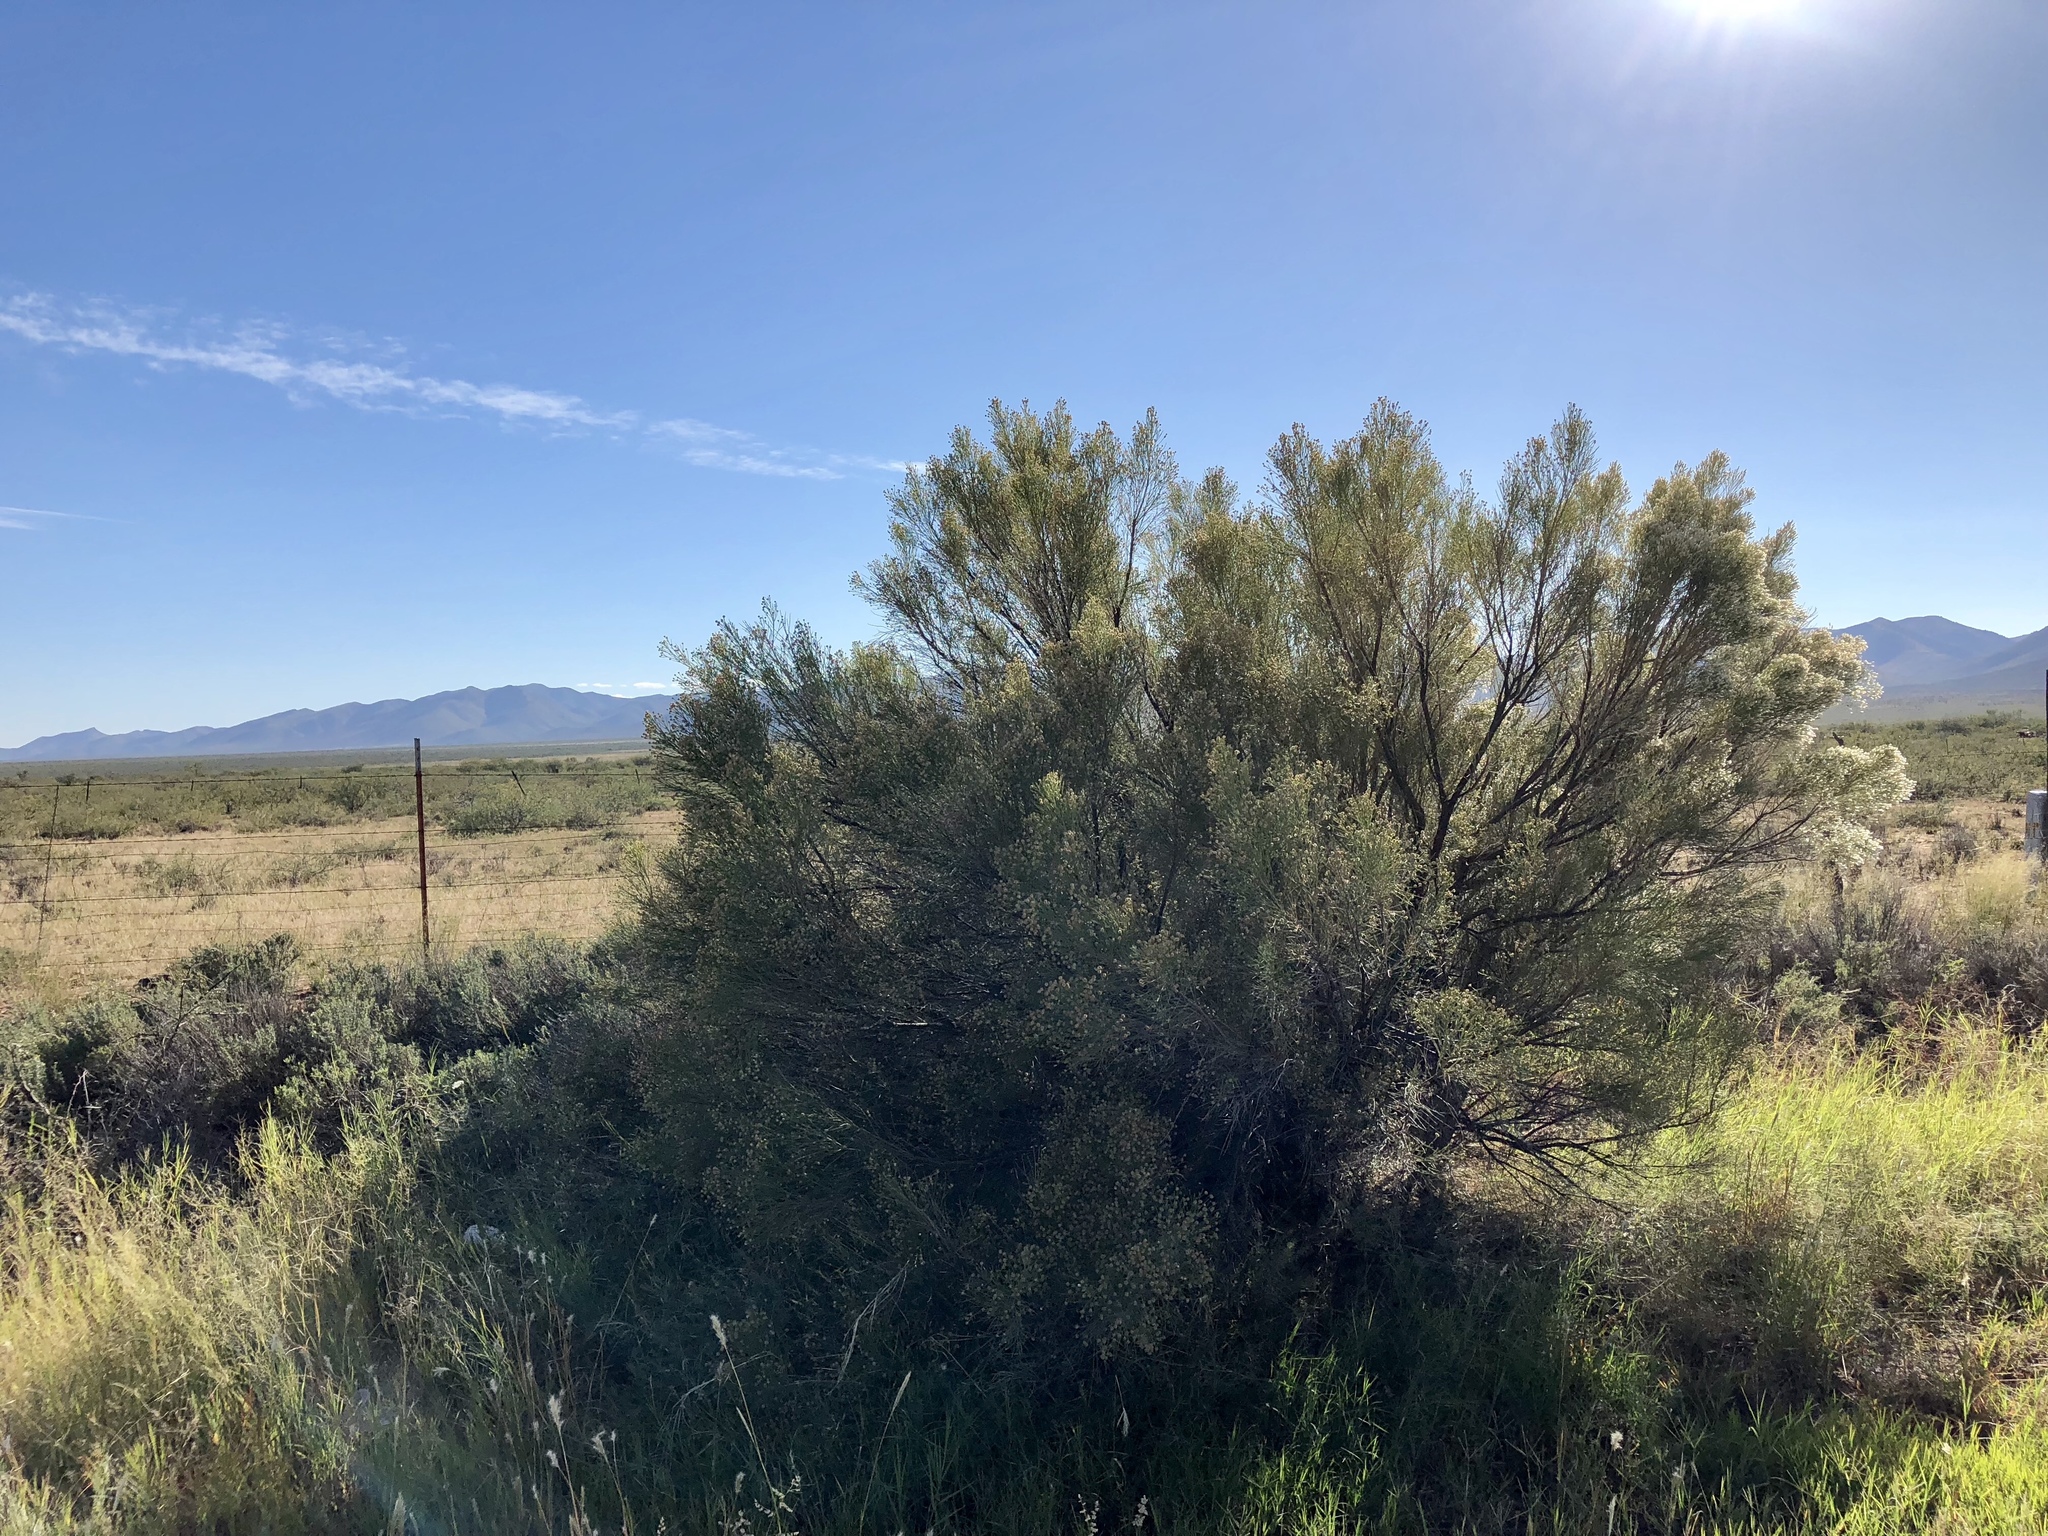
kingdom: Plantae
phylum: Tracheophyta
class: Magnoliopsida
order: Asterales
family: Asteraceae
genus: Baccharis
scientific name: Baccharis sarothroides
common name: Desert-broom
